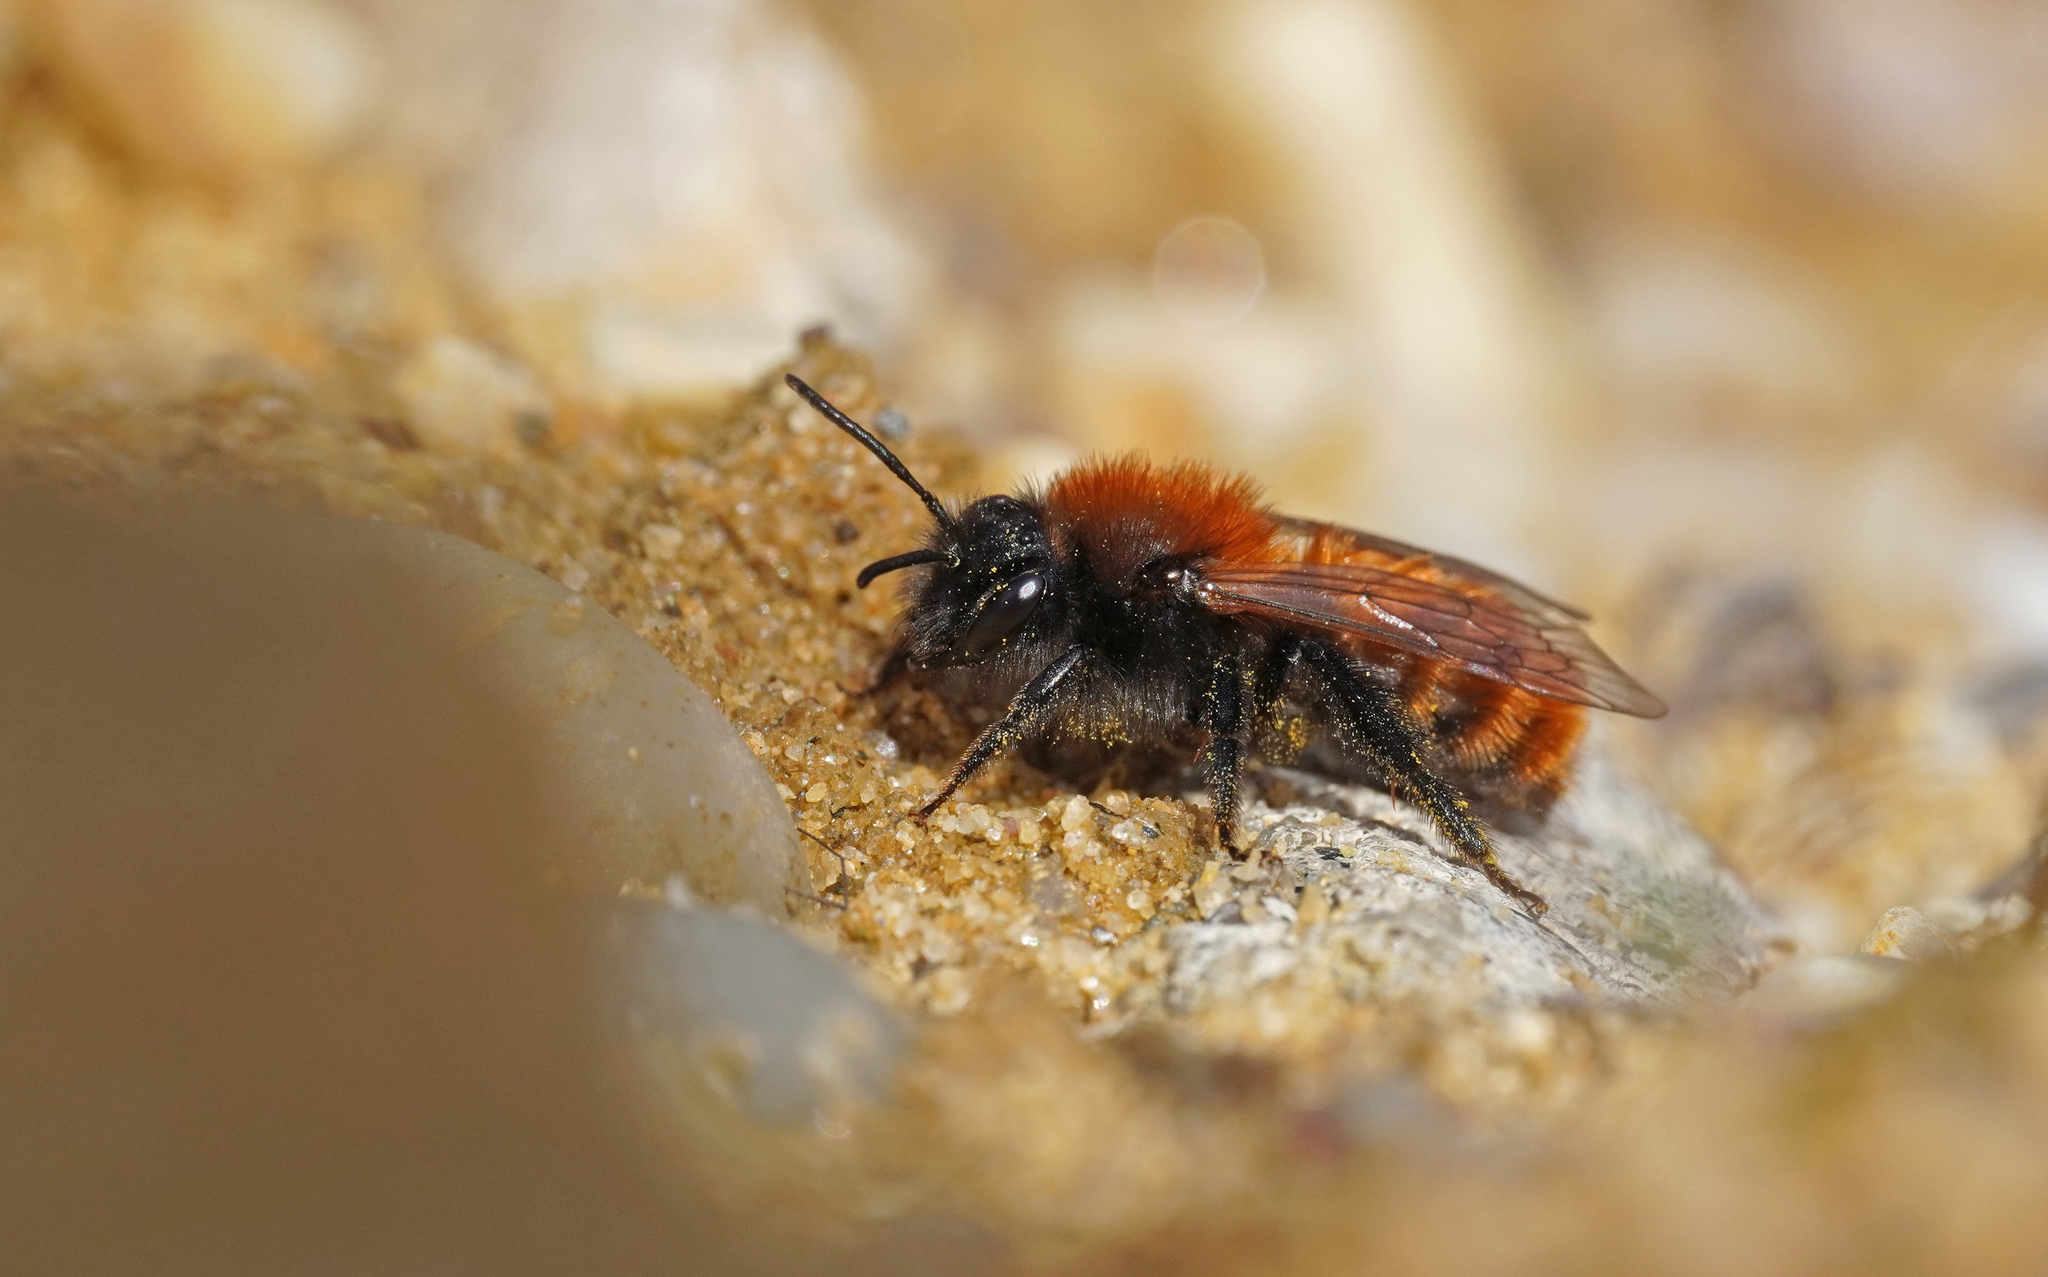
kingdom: Animalia
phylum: Arthropoda
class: Insecta
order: Hymenoptera
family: Andrenidae
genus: Andrena
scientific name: Andrena fulva
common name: Tawny mining bee
